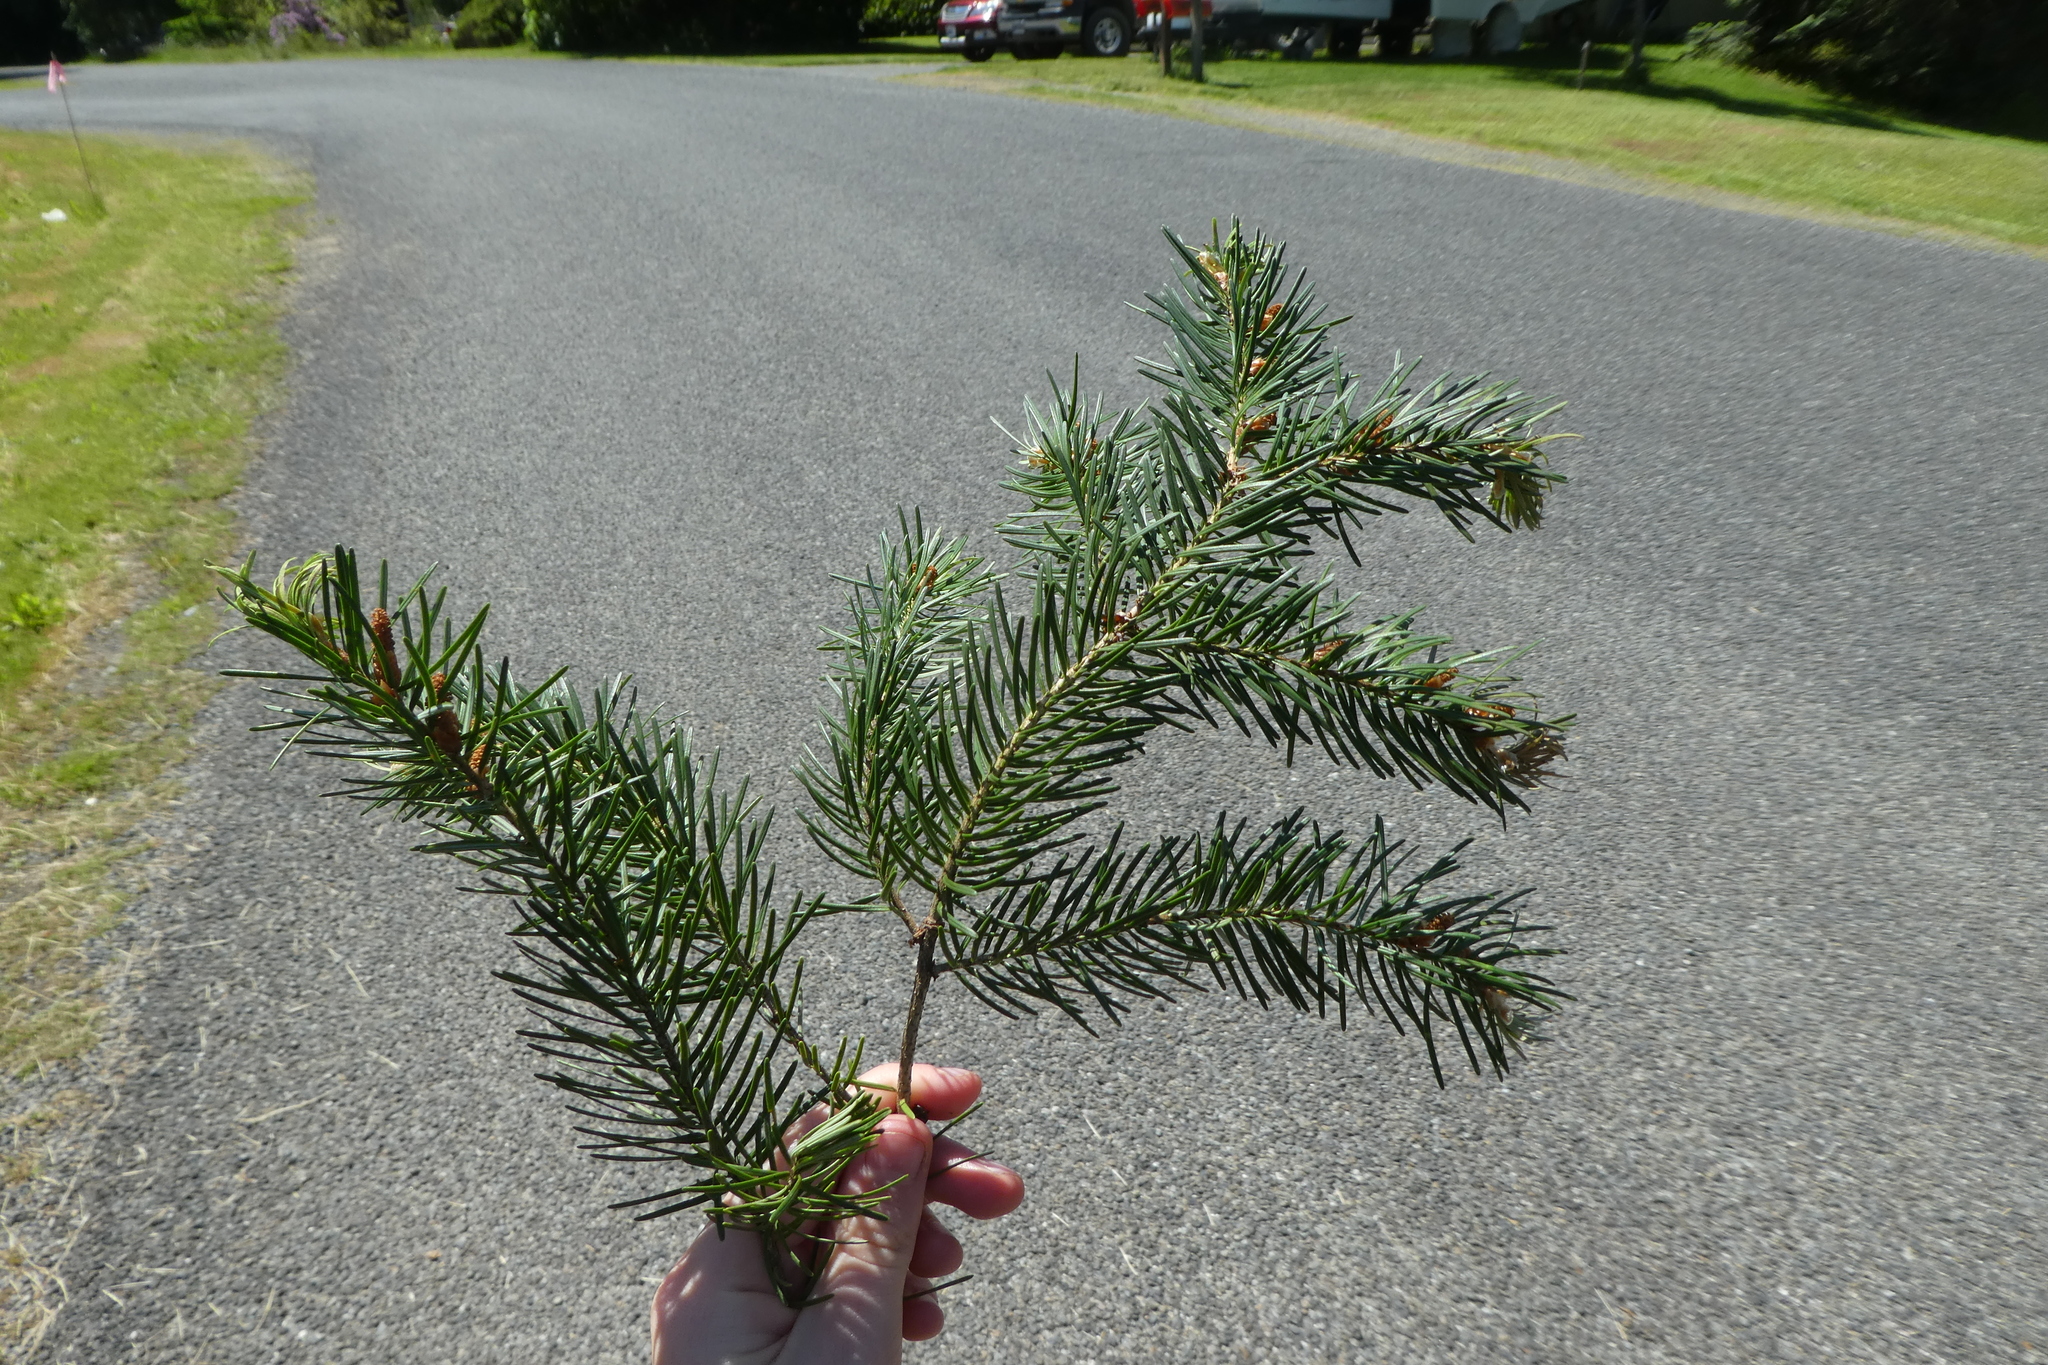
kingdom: Plantae
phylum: Tracheophyta
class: Pinopsida
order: Pinales
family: Pinaceae
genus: Pseudotsuga
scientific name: Pseudotsuga menziesii
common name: Douglas fir
